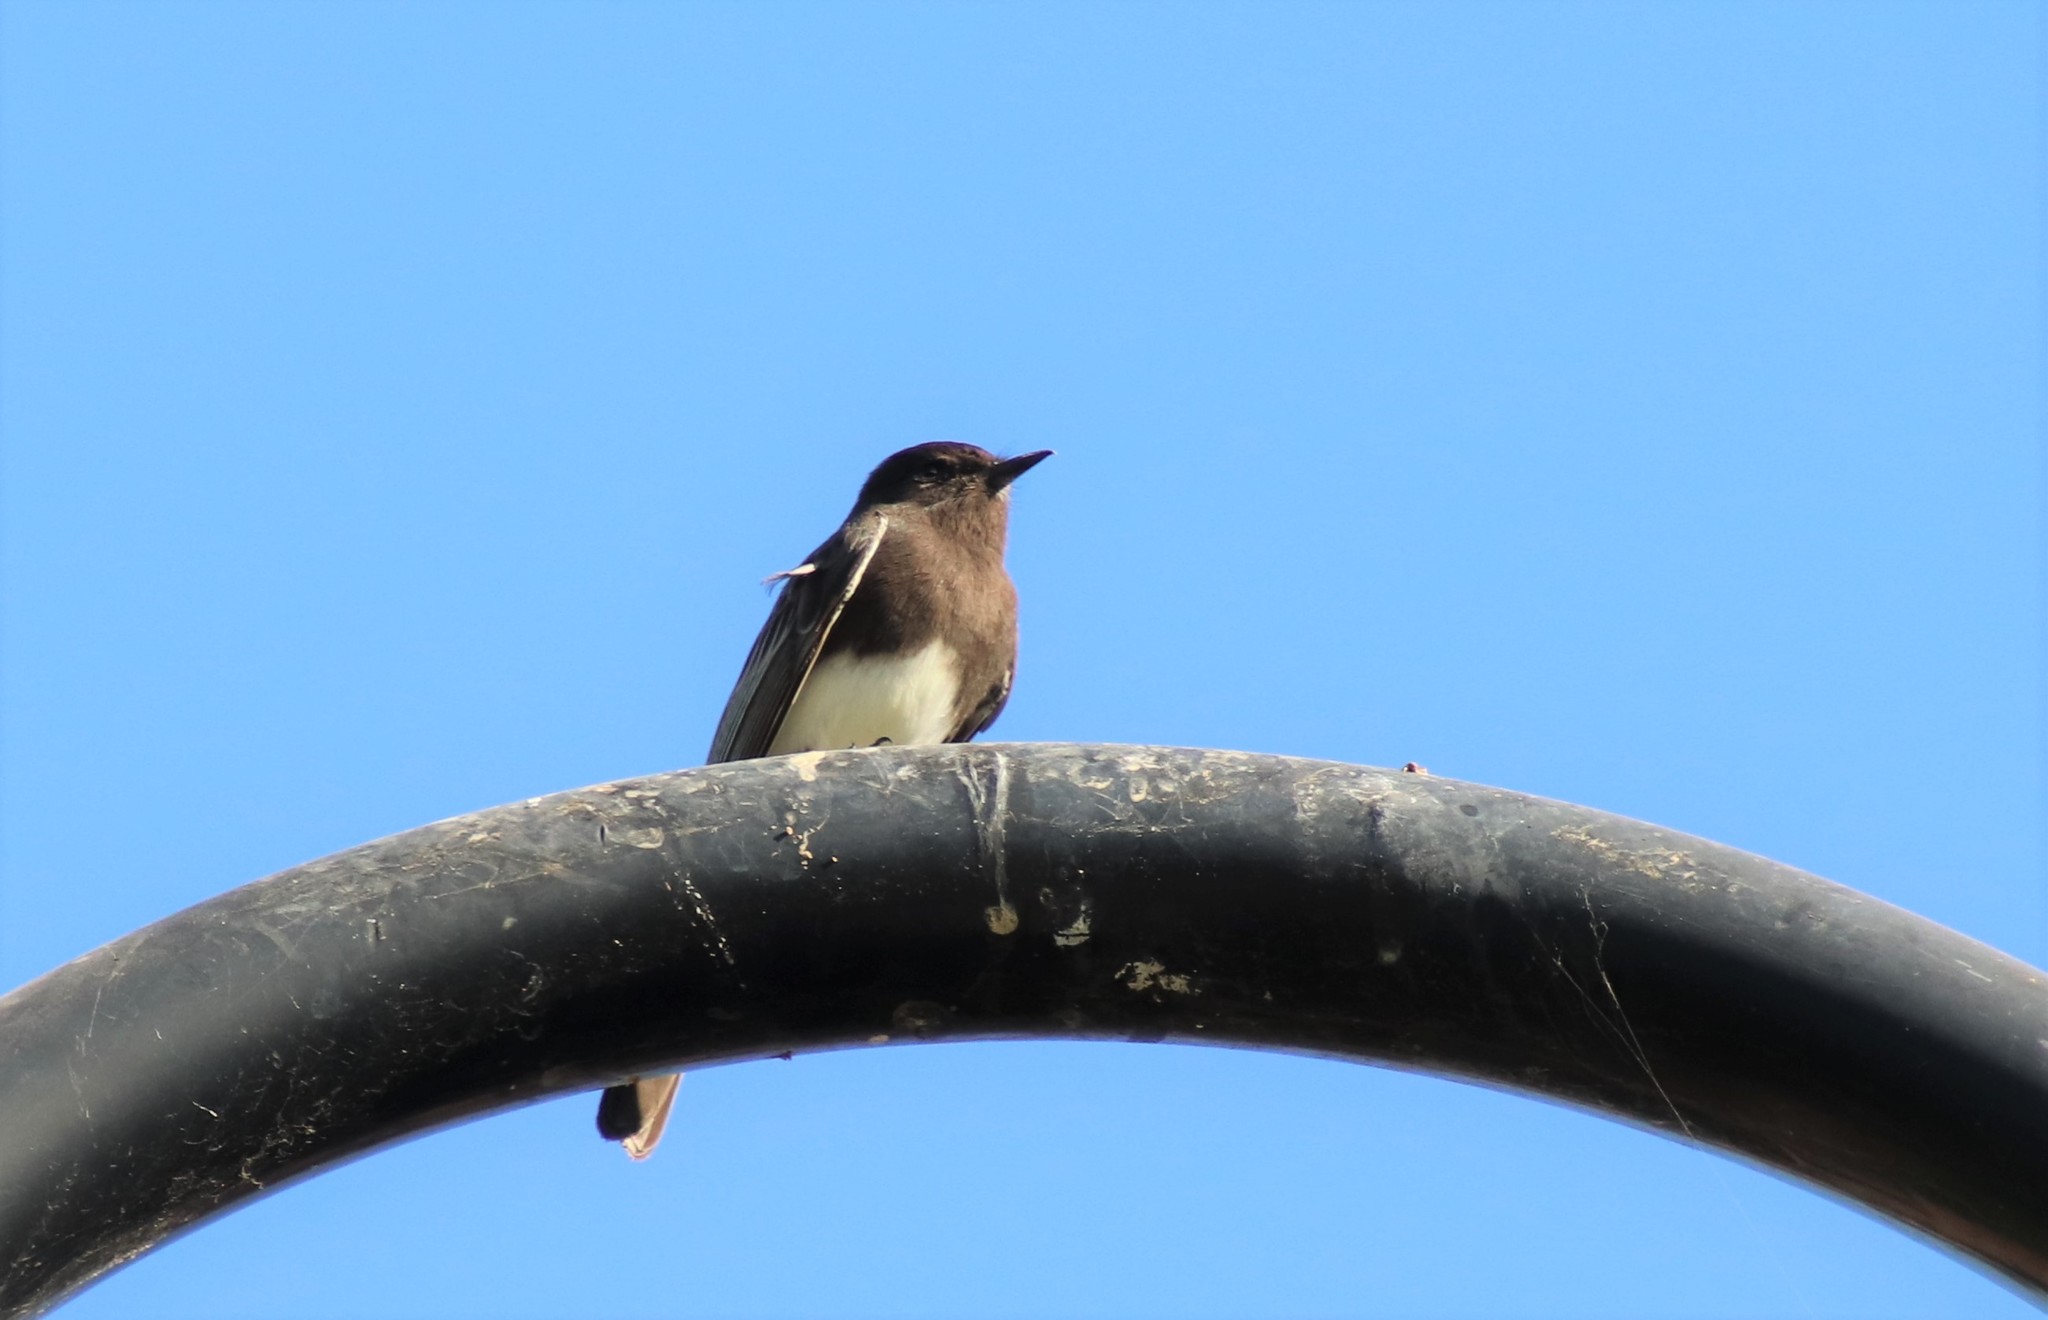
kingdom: Animalia
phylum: Chordata
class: Aves
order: Passeriformes
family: Tyrannidae
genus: Sayornis
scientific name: Sayornis nigricans
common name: Black phoebe
